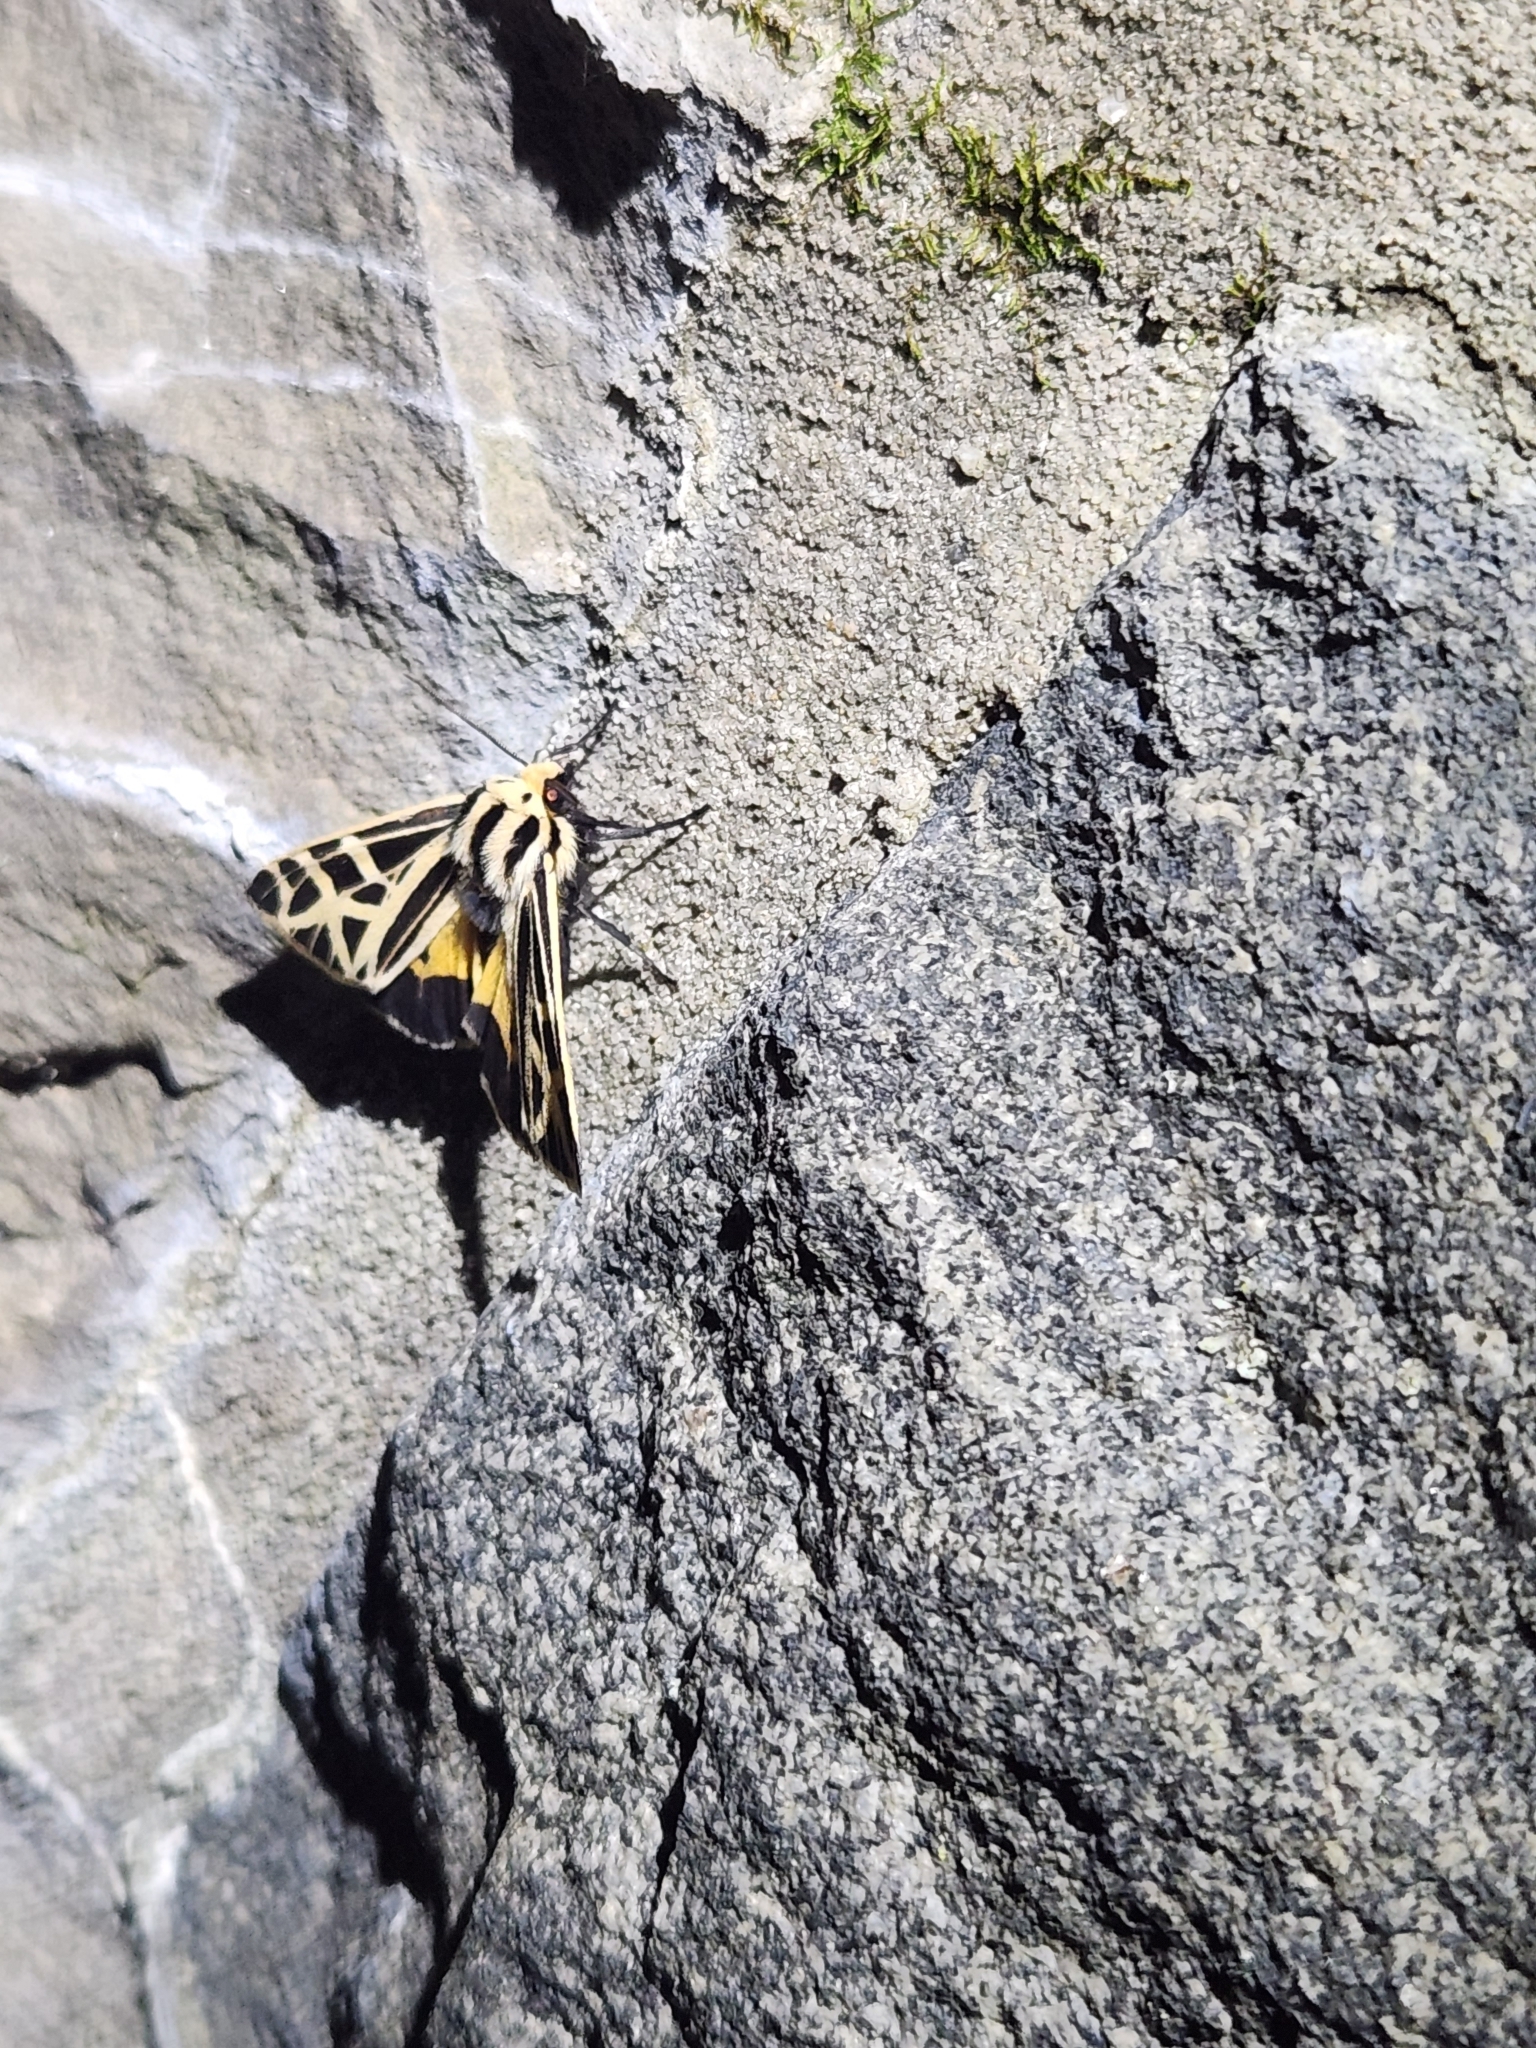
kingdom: Animalia
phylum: Arthropoda
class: Insecta
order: Lepidoptera
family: Erebidae
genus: Apantesis
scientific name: Apantesis
